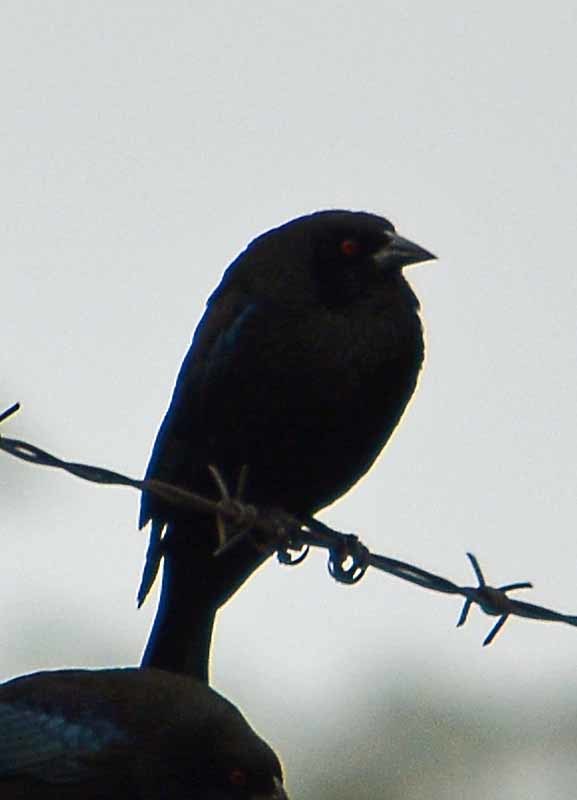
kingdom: Animalia
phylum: Chordata
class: Aves
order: Passeriformes
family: Icteridae
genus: Molothrus
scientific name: Molothrus aeneus
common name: Bronzed cowbird
